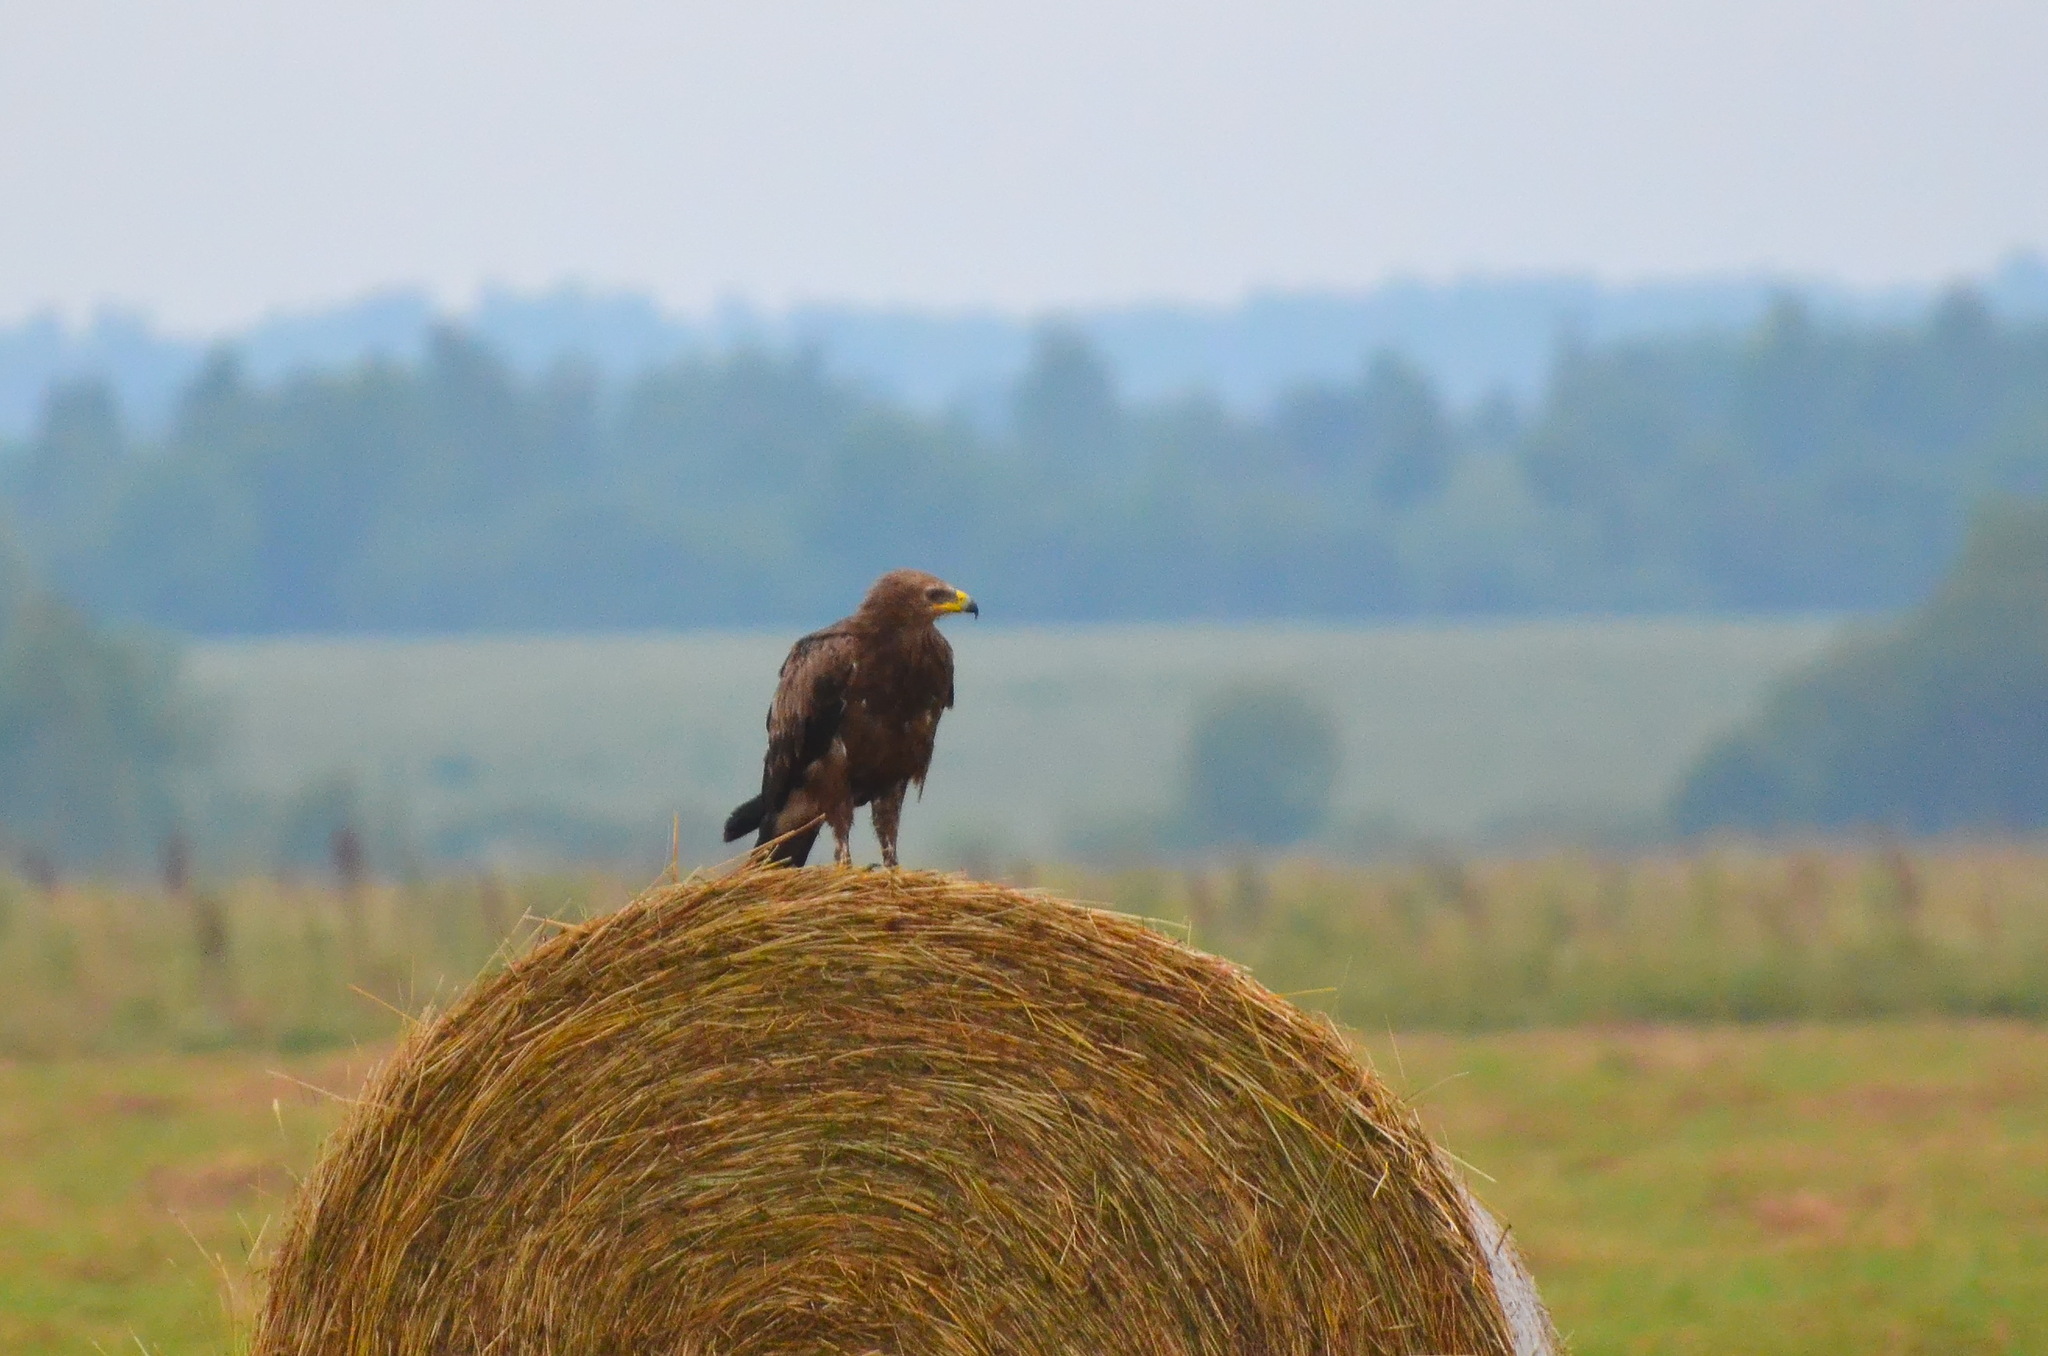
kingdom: Animalia
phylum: Chordata
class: Aves
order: Accipitriformes
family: Accipitridae
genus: Aquila
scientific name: Aquila pomarina
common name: Lesser spotted eagle
